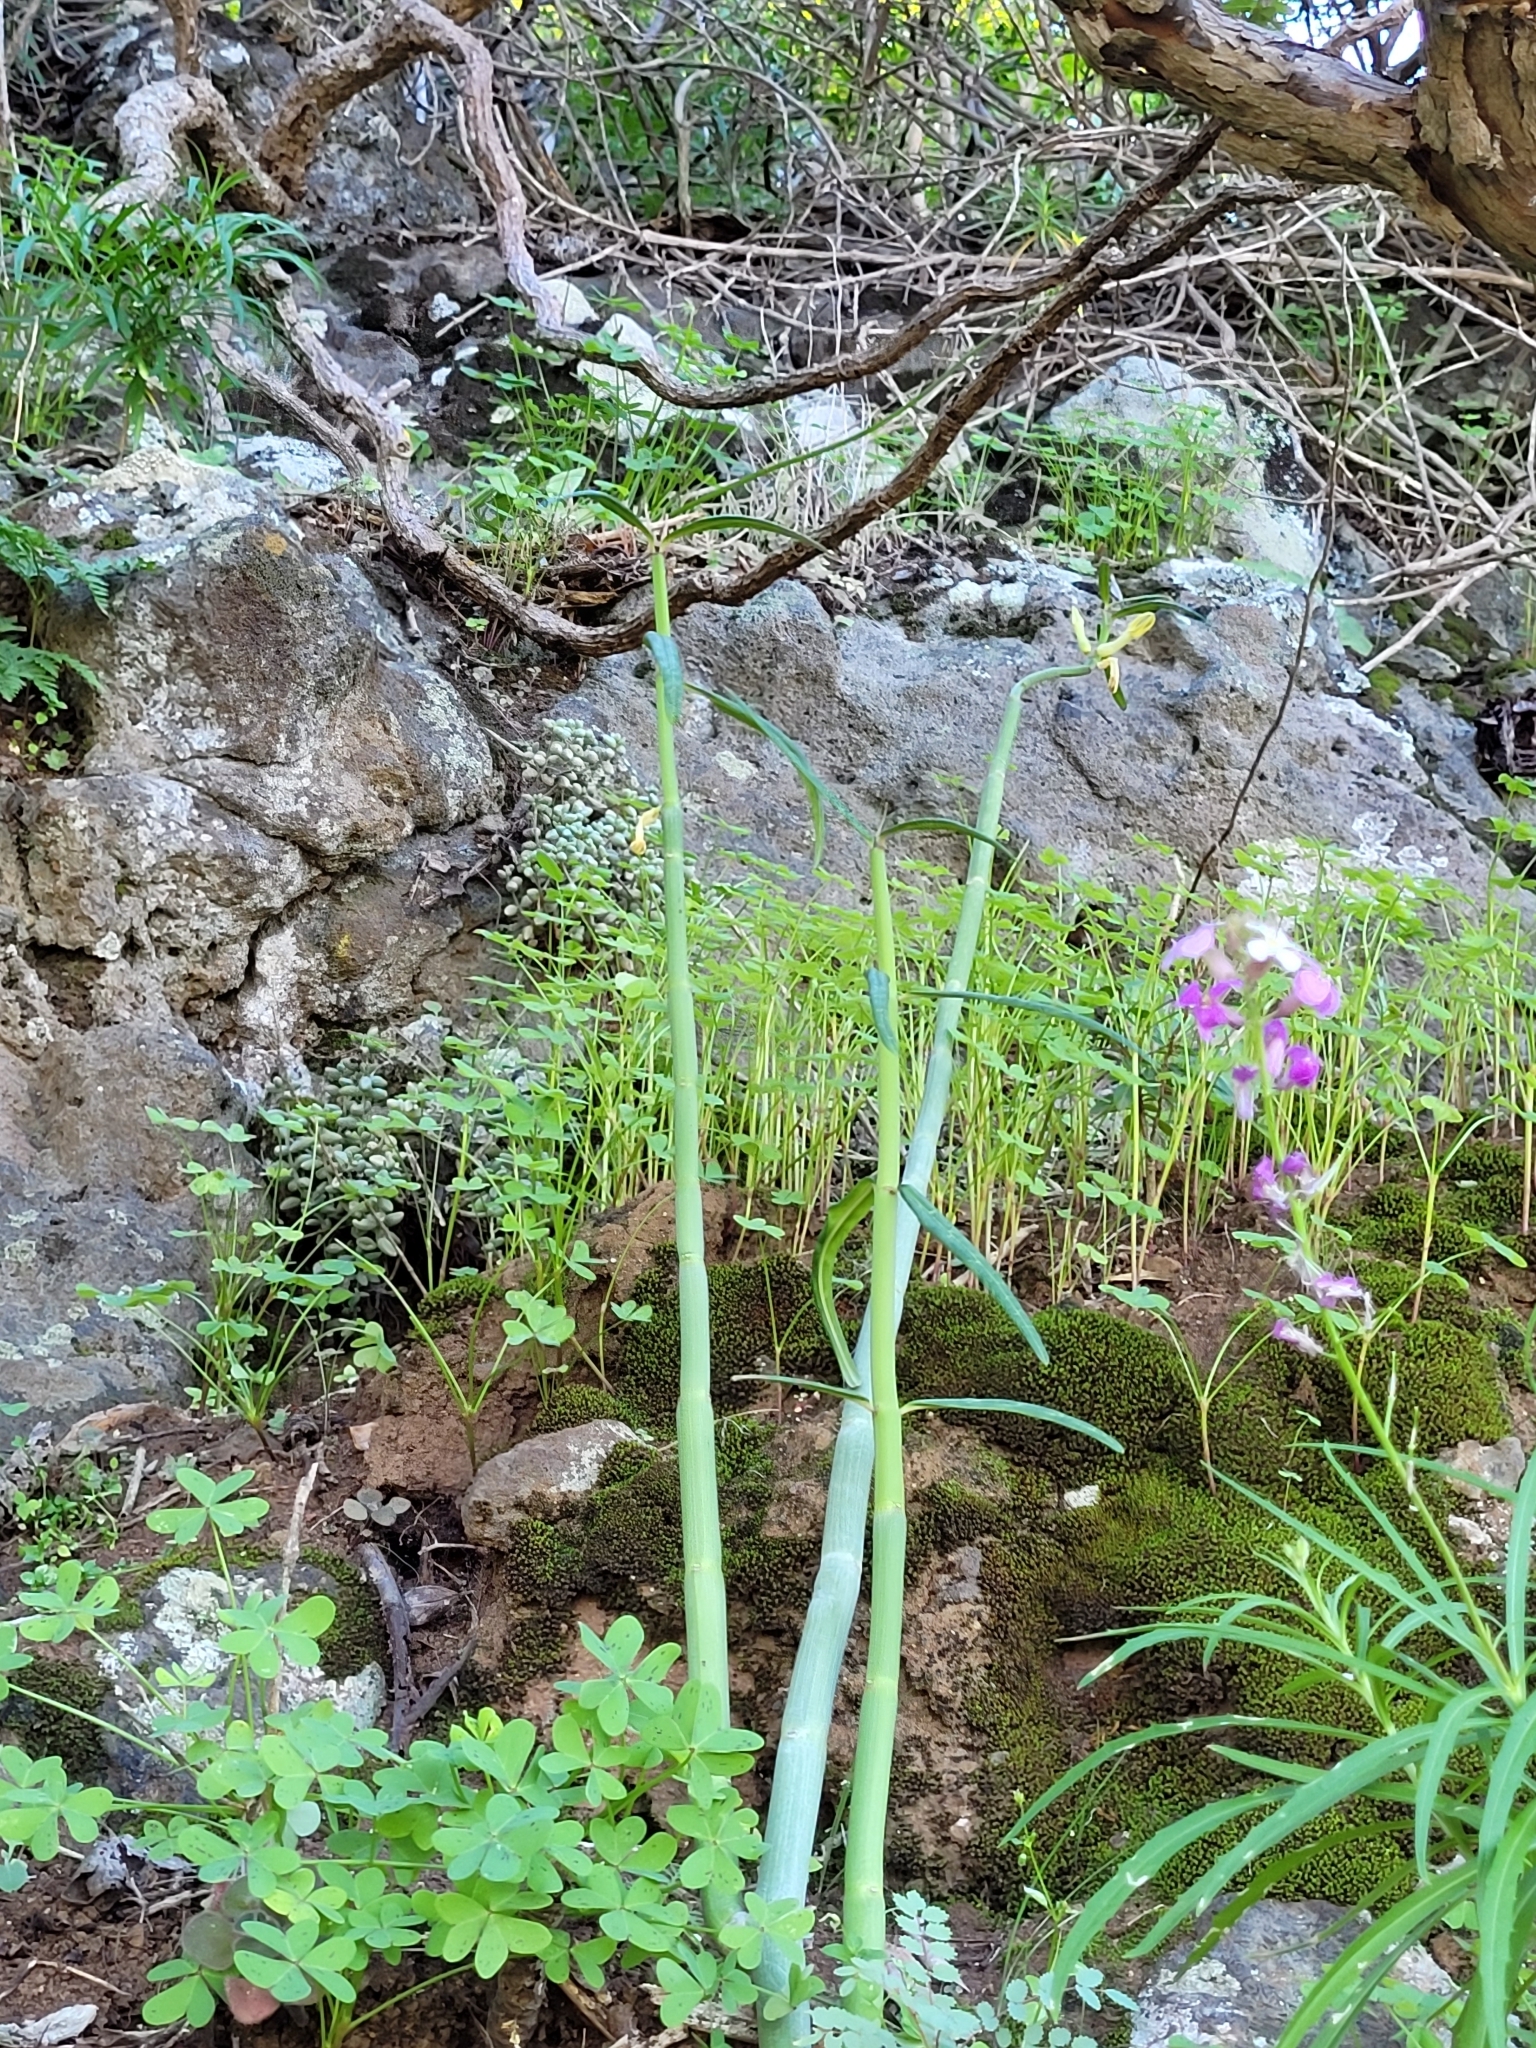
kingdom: Plantae
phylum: Tracheophyta
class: Magnoliopsida
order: Gentianales
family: Apocynaceae
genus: Ceropegia
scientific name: Ceropegia dichotoma
